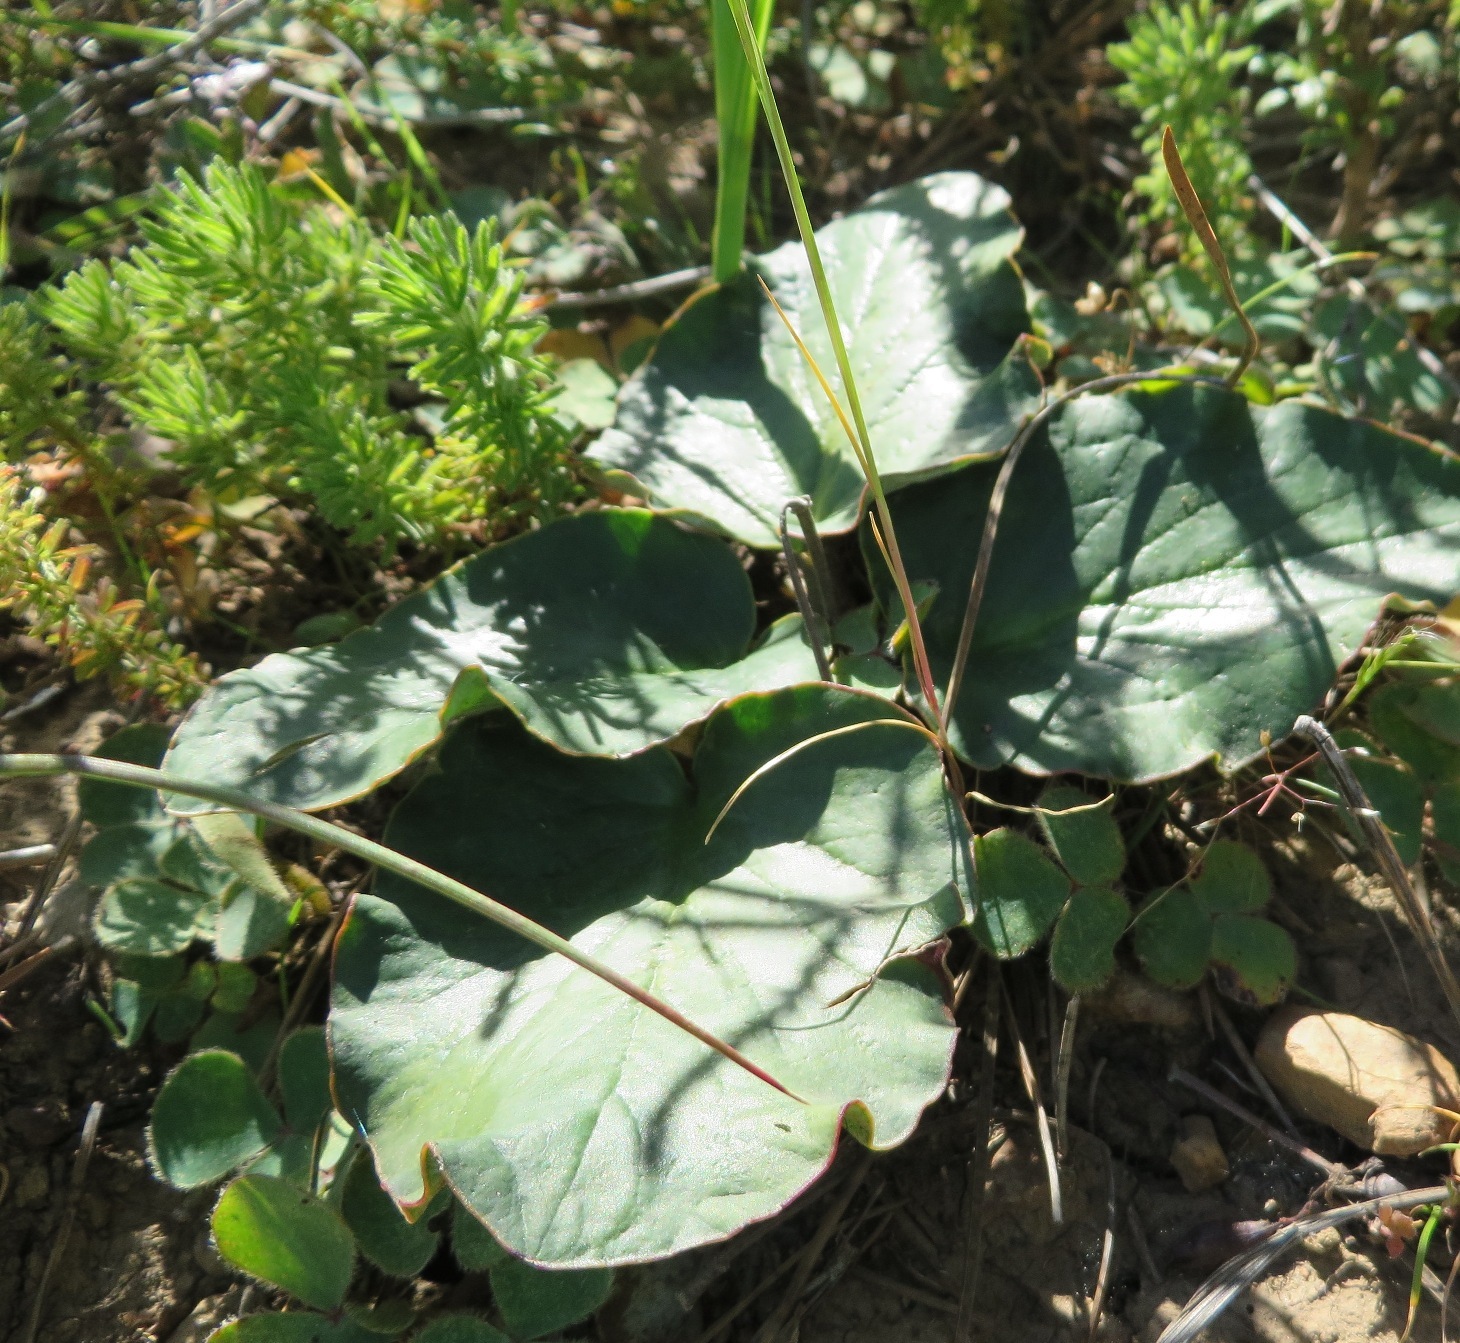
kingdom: Plantae
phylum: Tracheophyta
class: Magnoliopsida
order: Geraniales
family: Geraniaceae
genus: Pelargonium
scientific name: Pelargonium asarifolium
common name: Asarum-leaf pelargonium
